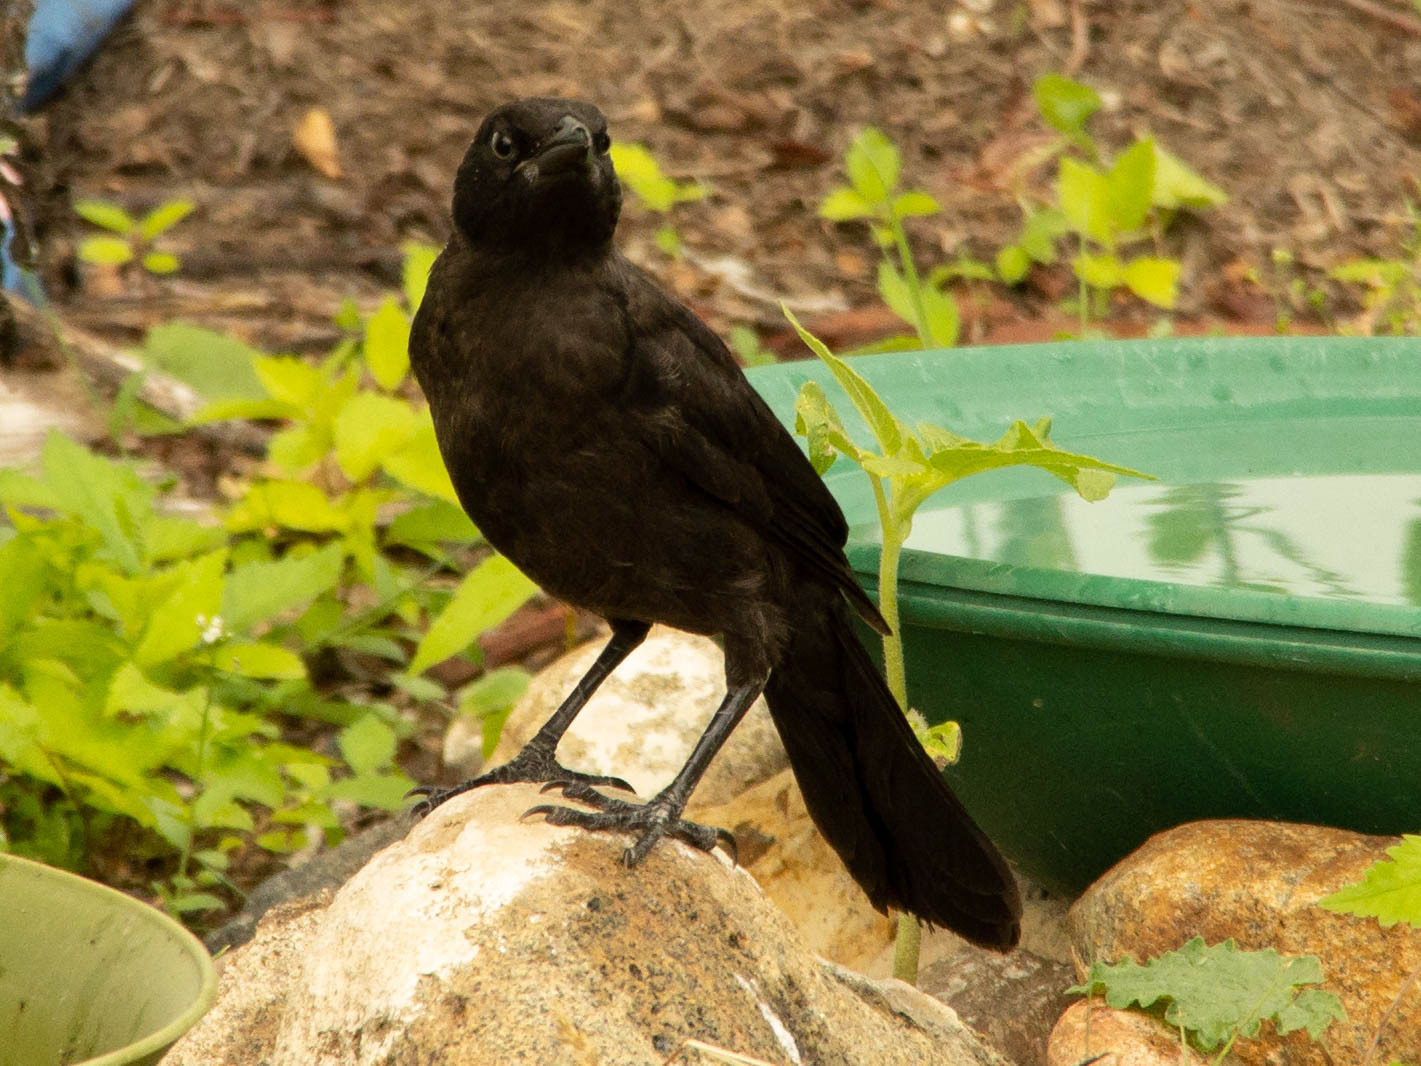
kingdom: Animalia
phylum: Chordata
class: Aves
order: Passeriformes
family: Icteridae
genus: Quiscalus
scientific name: Quiscalus quiscula
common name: Common grackle
